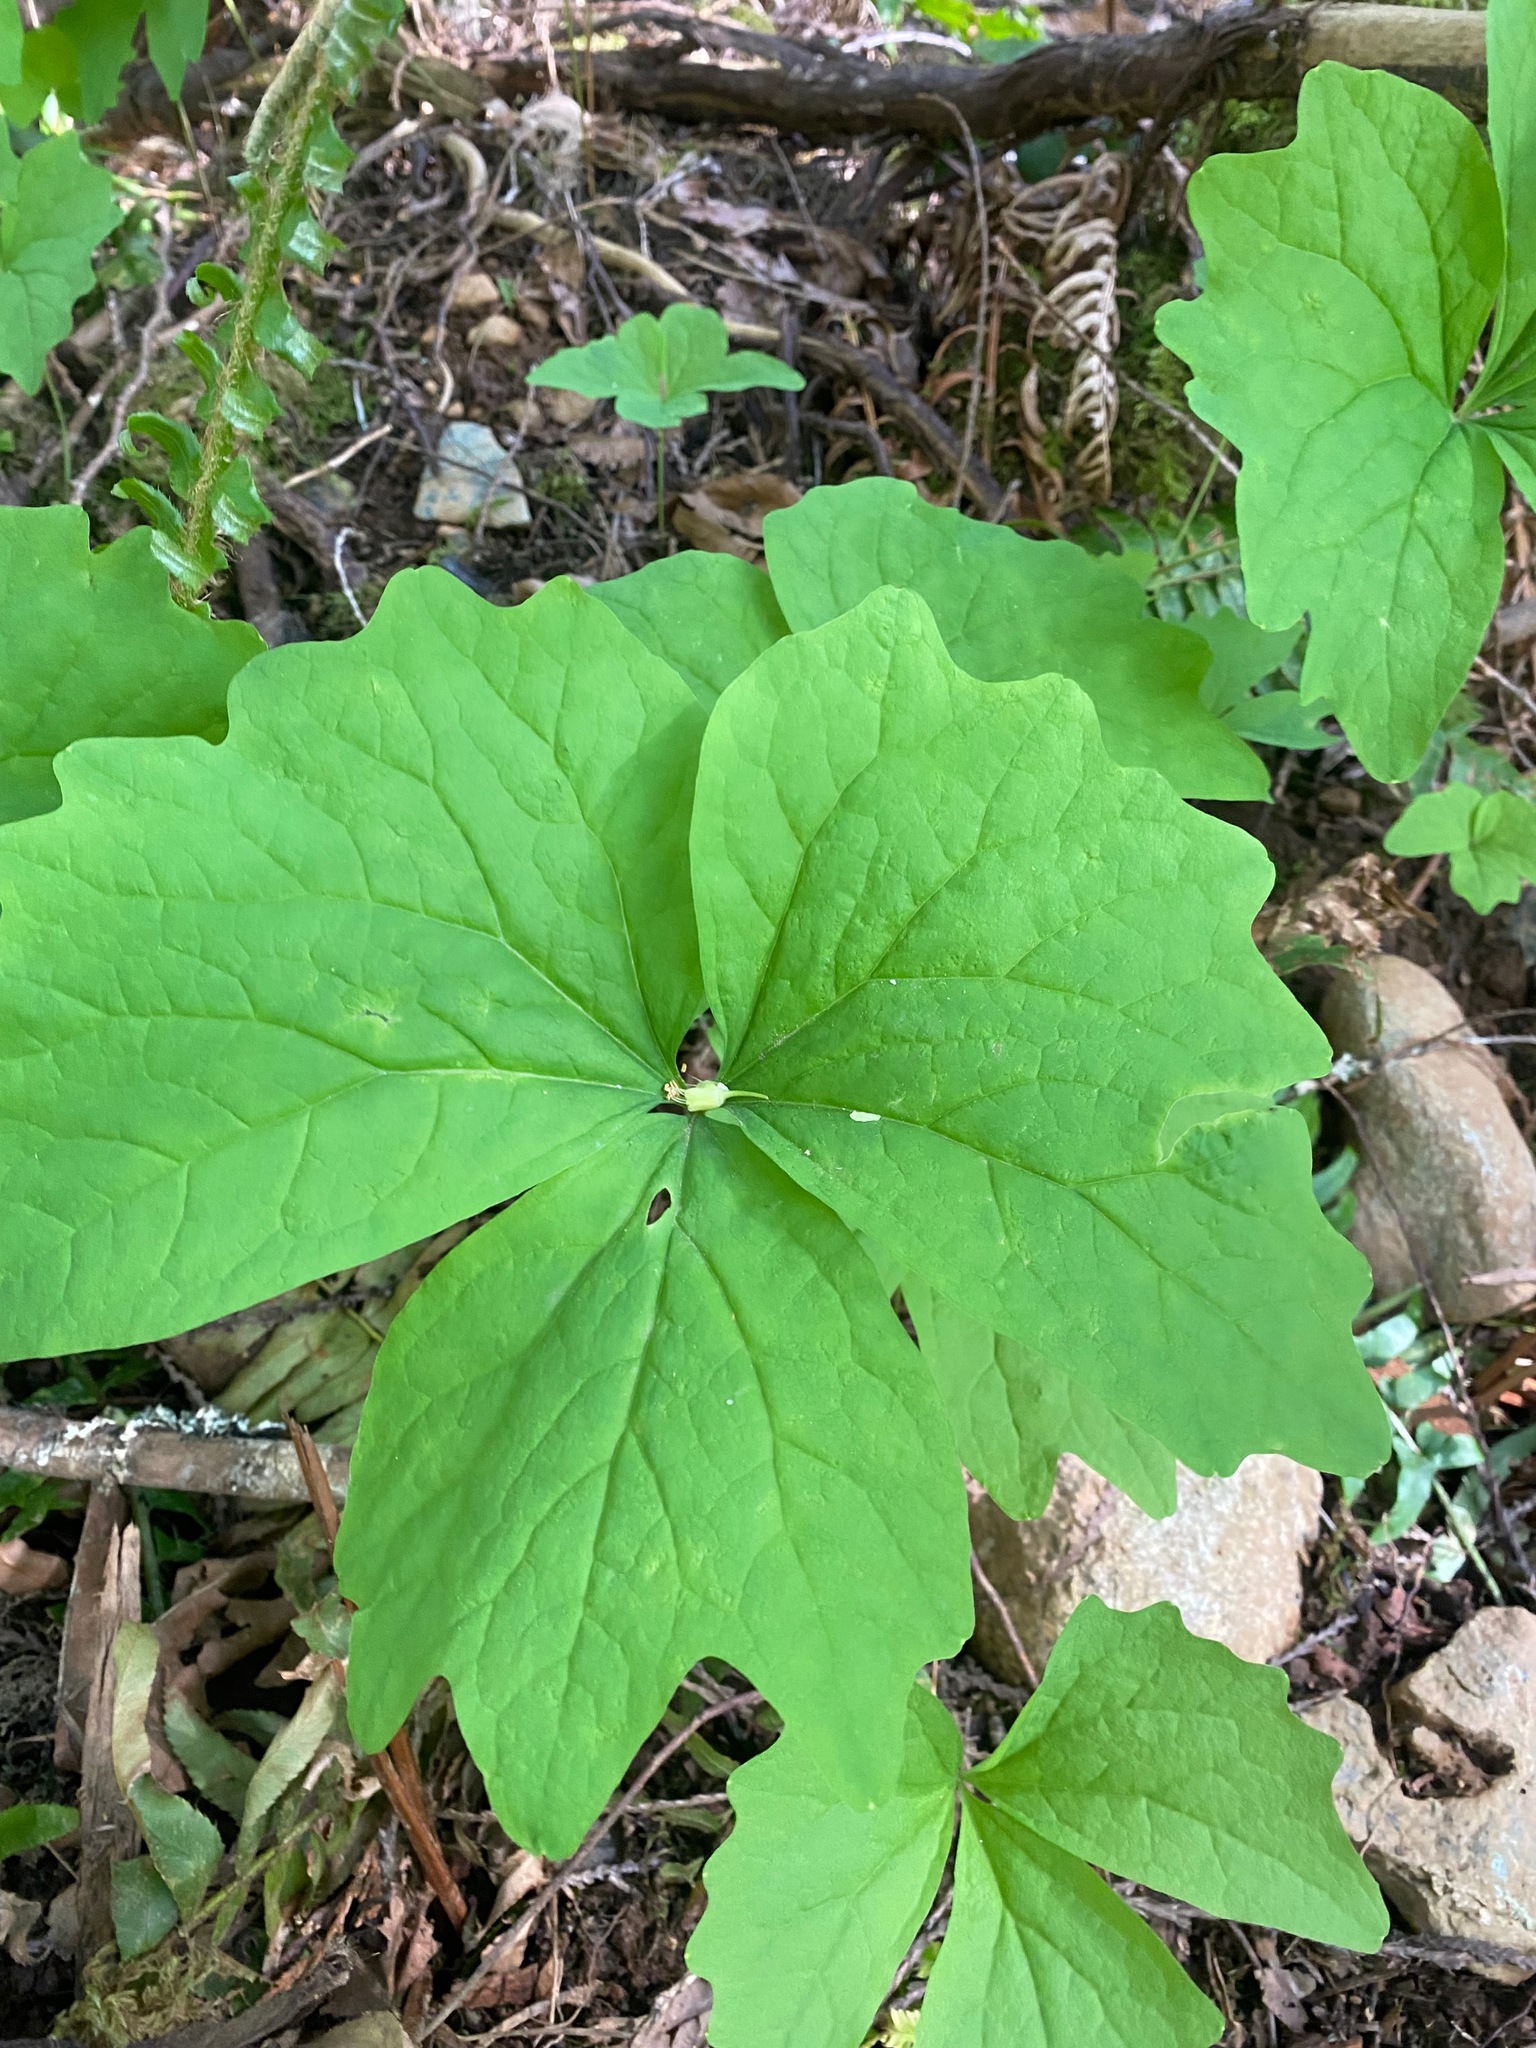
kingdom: Plantae
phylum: Tracheophyta
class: Magnoliopsida
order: Ranunculales
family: Berberidaceae
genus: Achlys
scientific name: Achlys triphylla
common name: Vanilla-leaf
